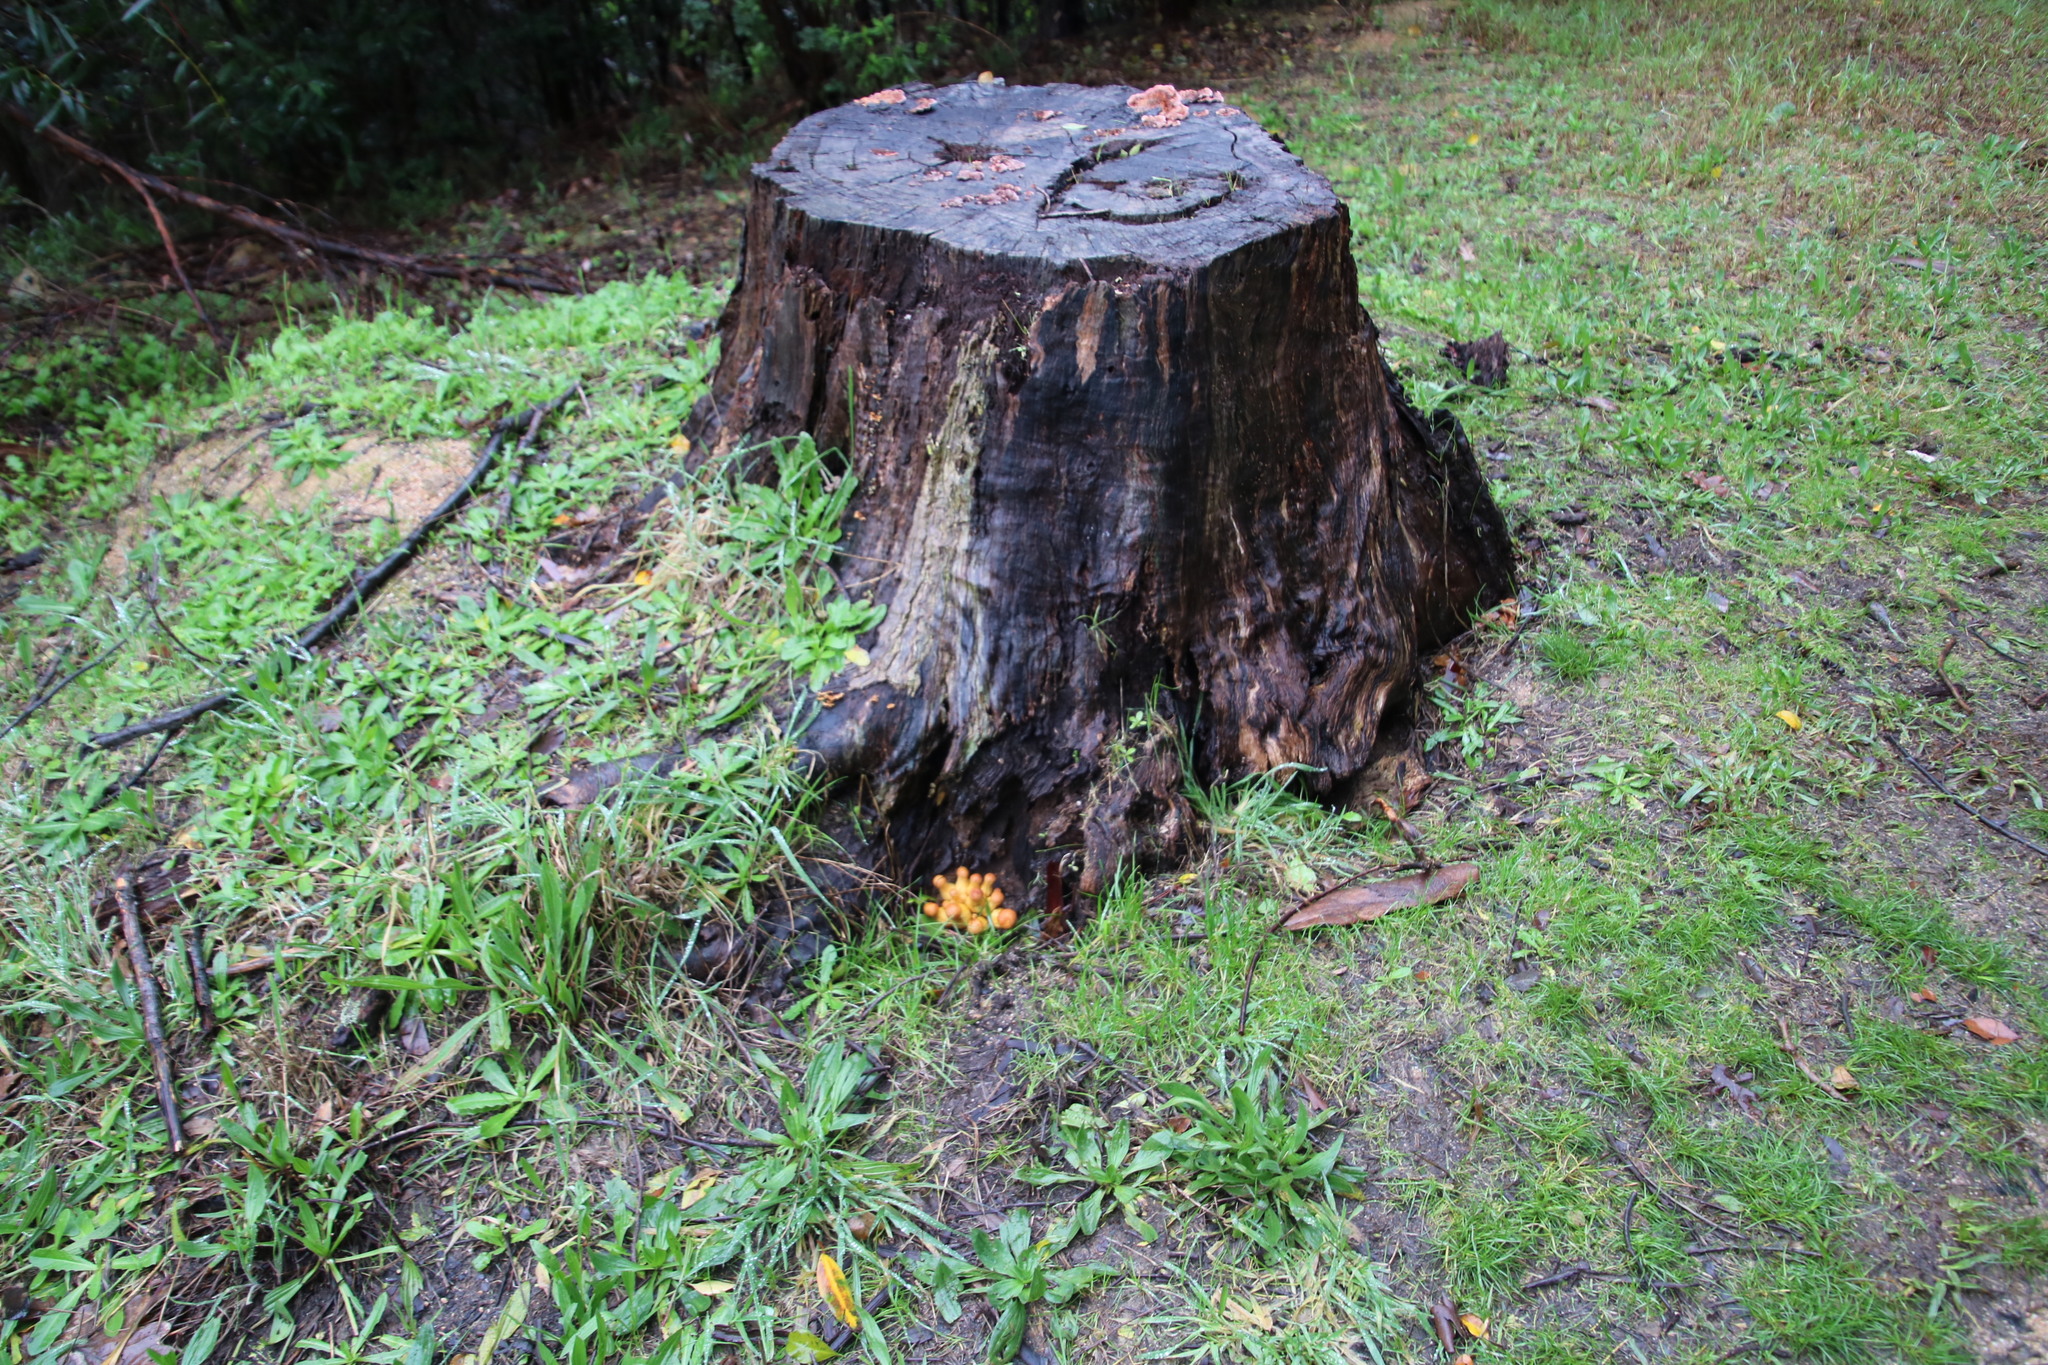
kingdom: Fungi
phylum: Basidiomycota
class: Agaricomycetes
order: Agaricales
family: Hymenogastraceae
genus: Gymnopilus
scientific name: Gymnopilus junonius
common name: Spectacular rustgill
